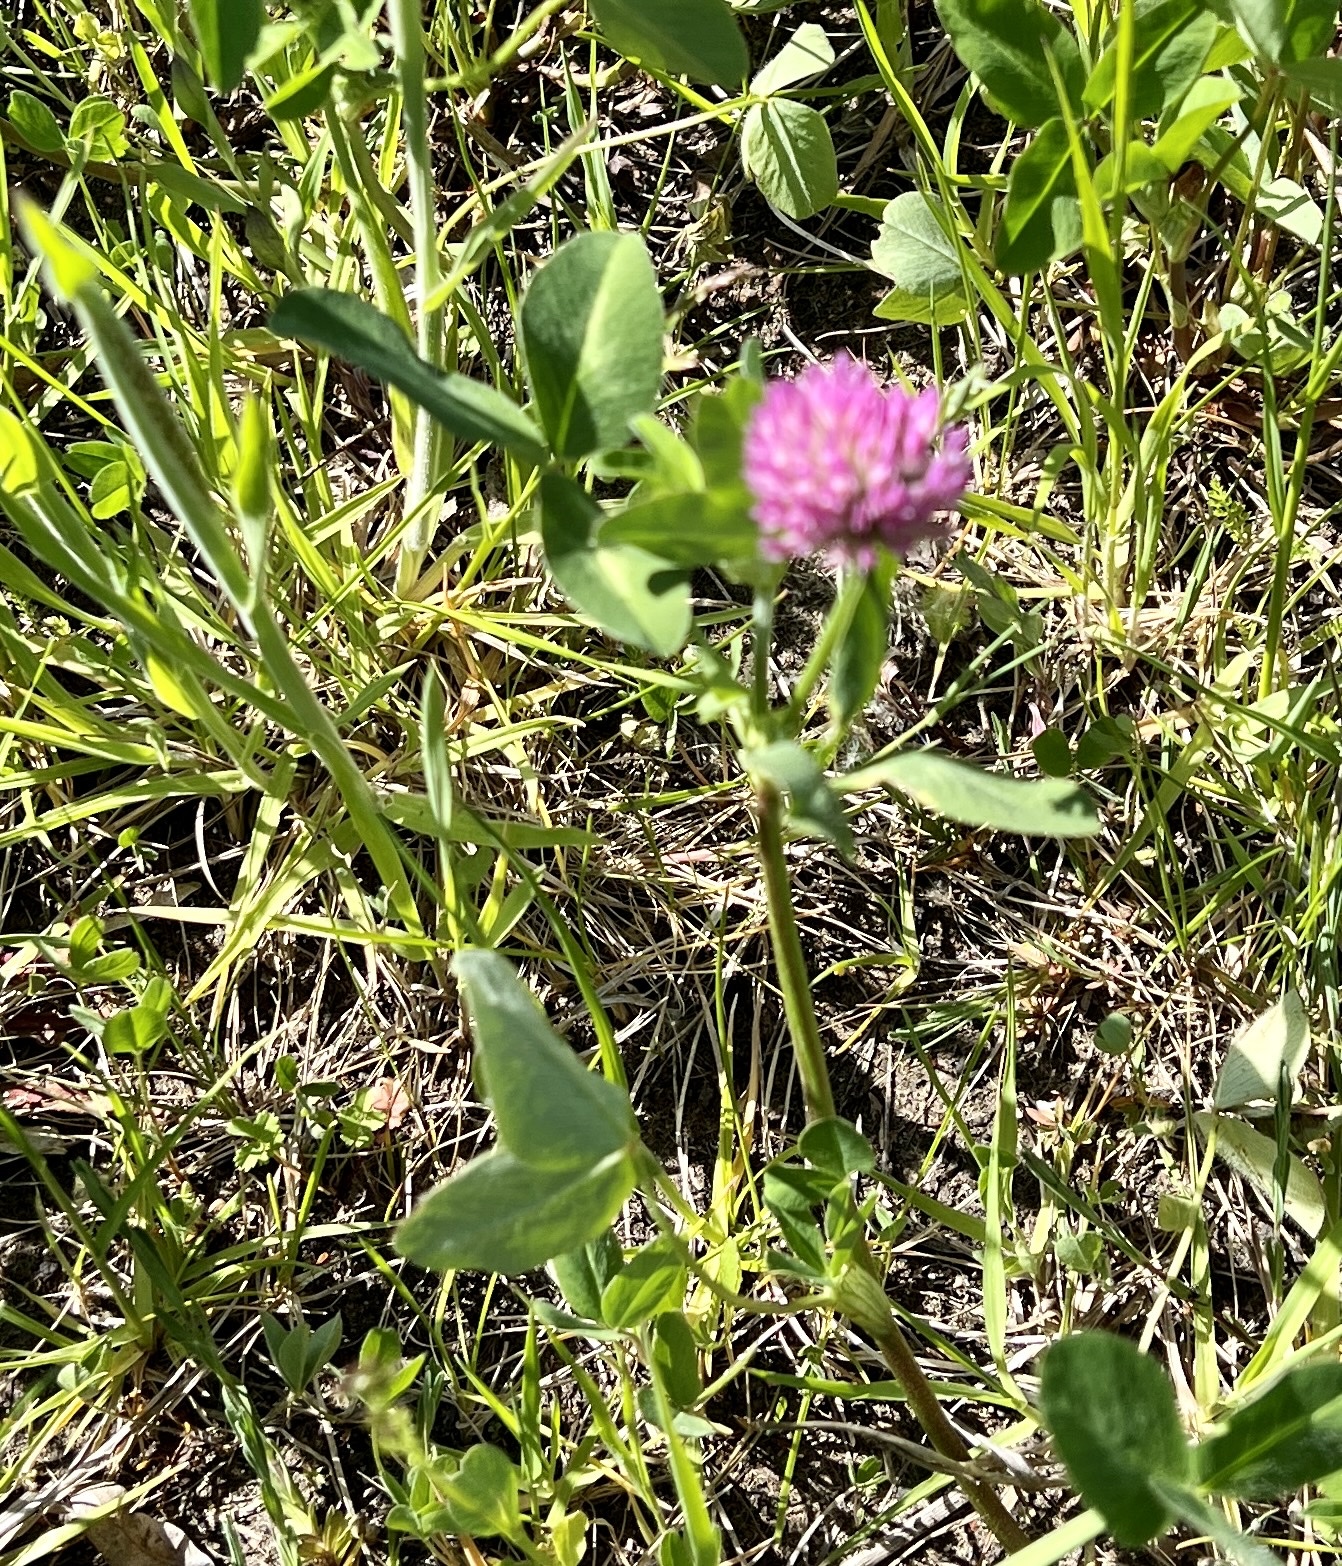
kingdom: Plantae
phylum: Tracheophyta
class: Magnoliopsida
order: Caryophyllales
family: Caryophyllaceae
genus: Silene
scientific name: Silene flos-cuculi
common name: Ragged-robin
